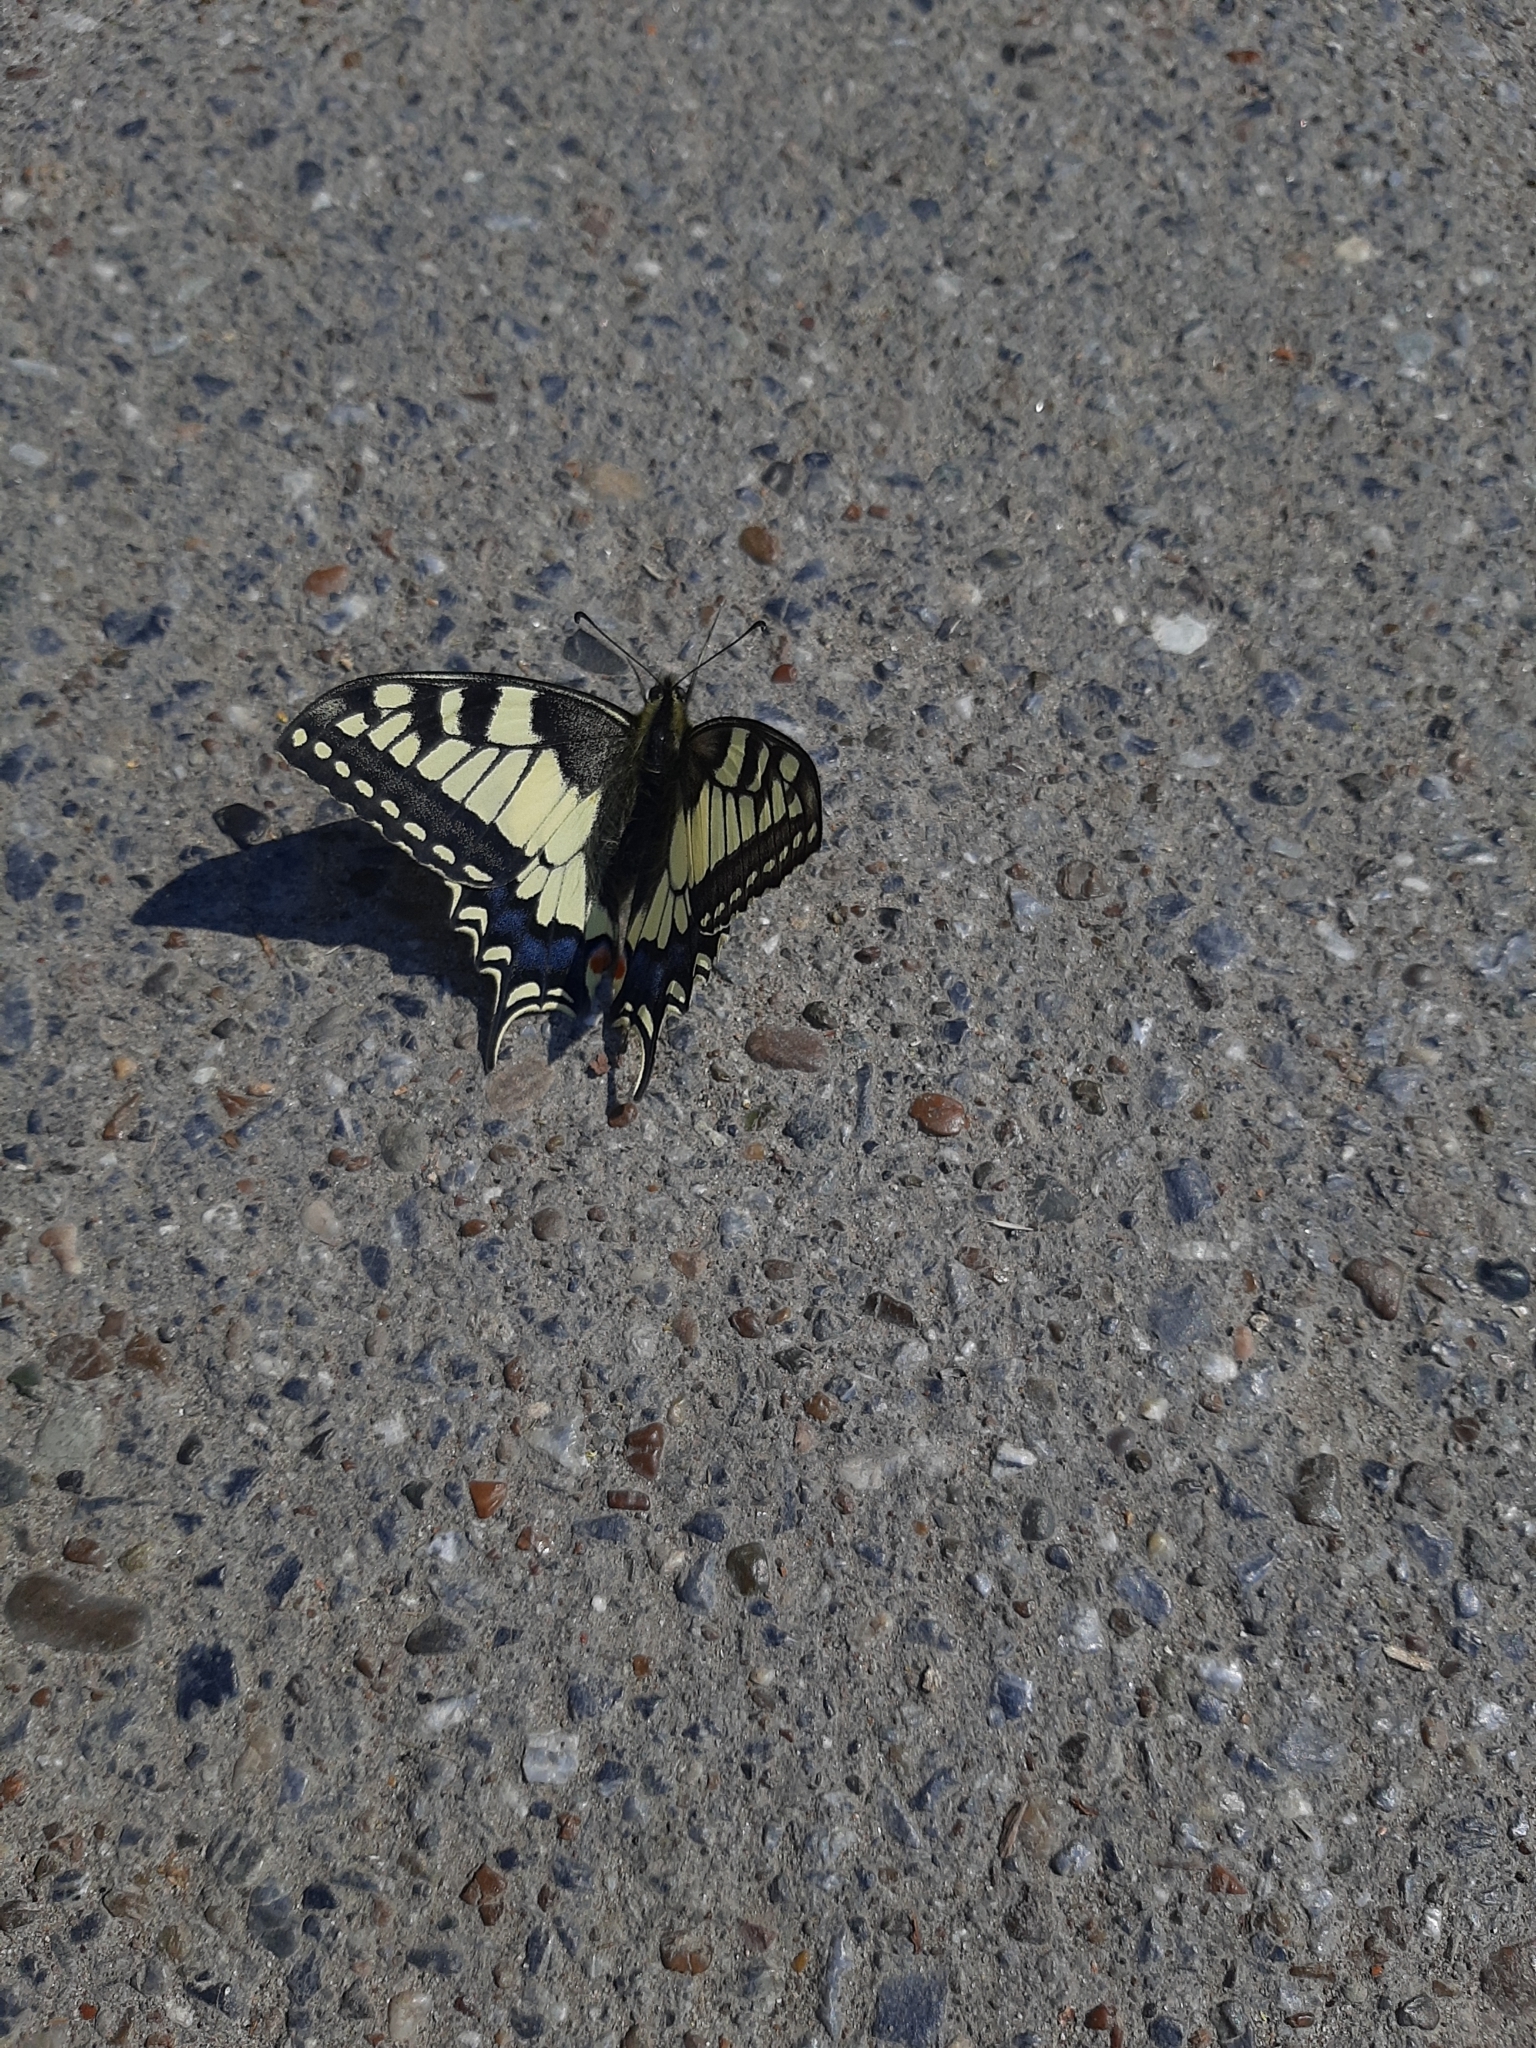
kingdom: Animalia
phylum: Arthropoda
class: Insecta
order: Lepidoptera
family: Papilionidae
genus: Papilio
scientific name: Papilio machaon
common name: Swallowtail
